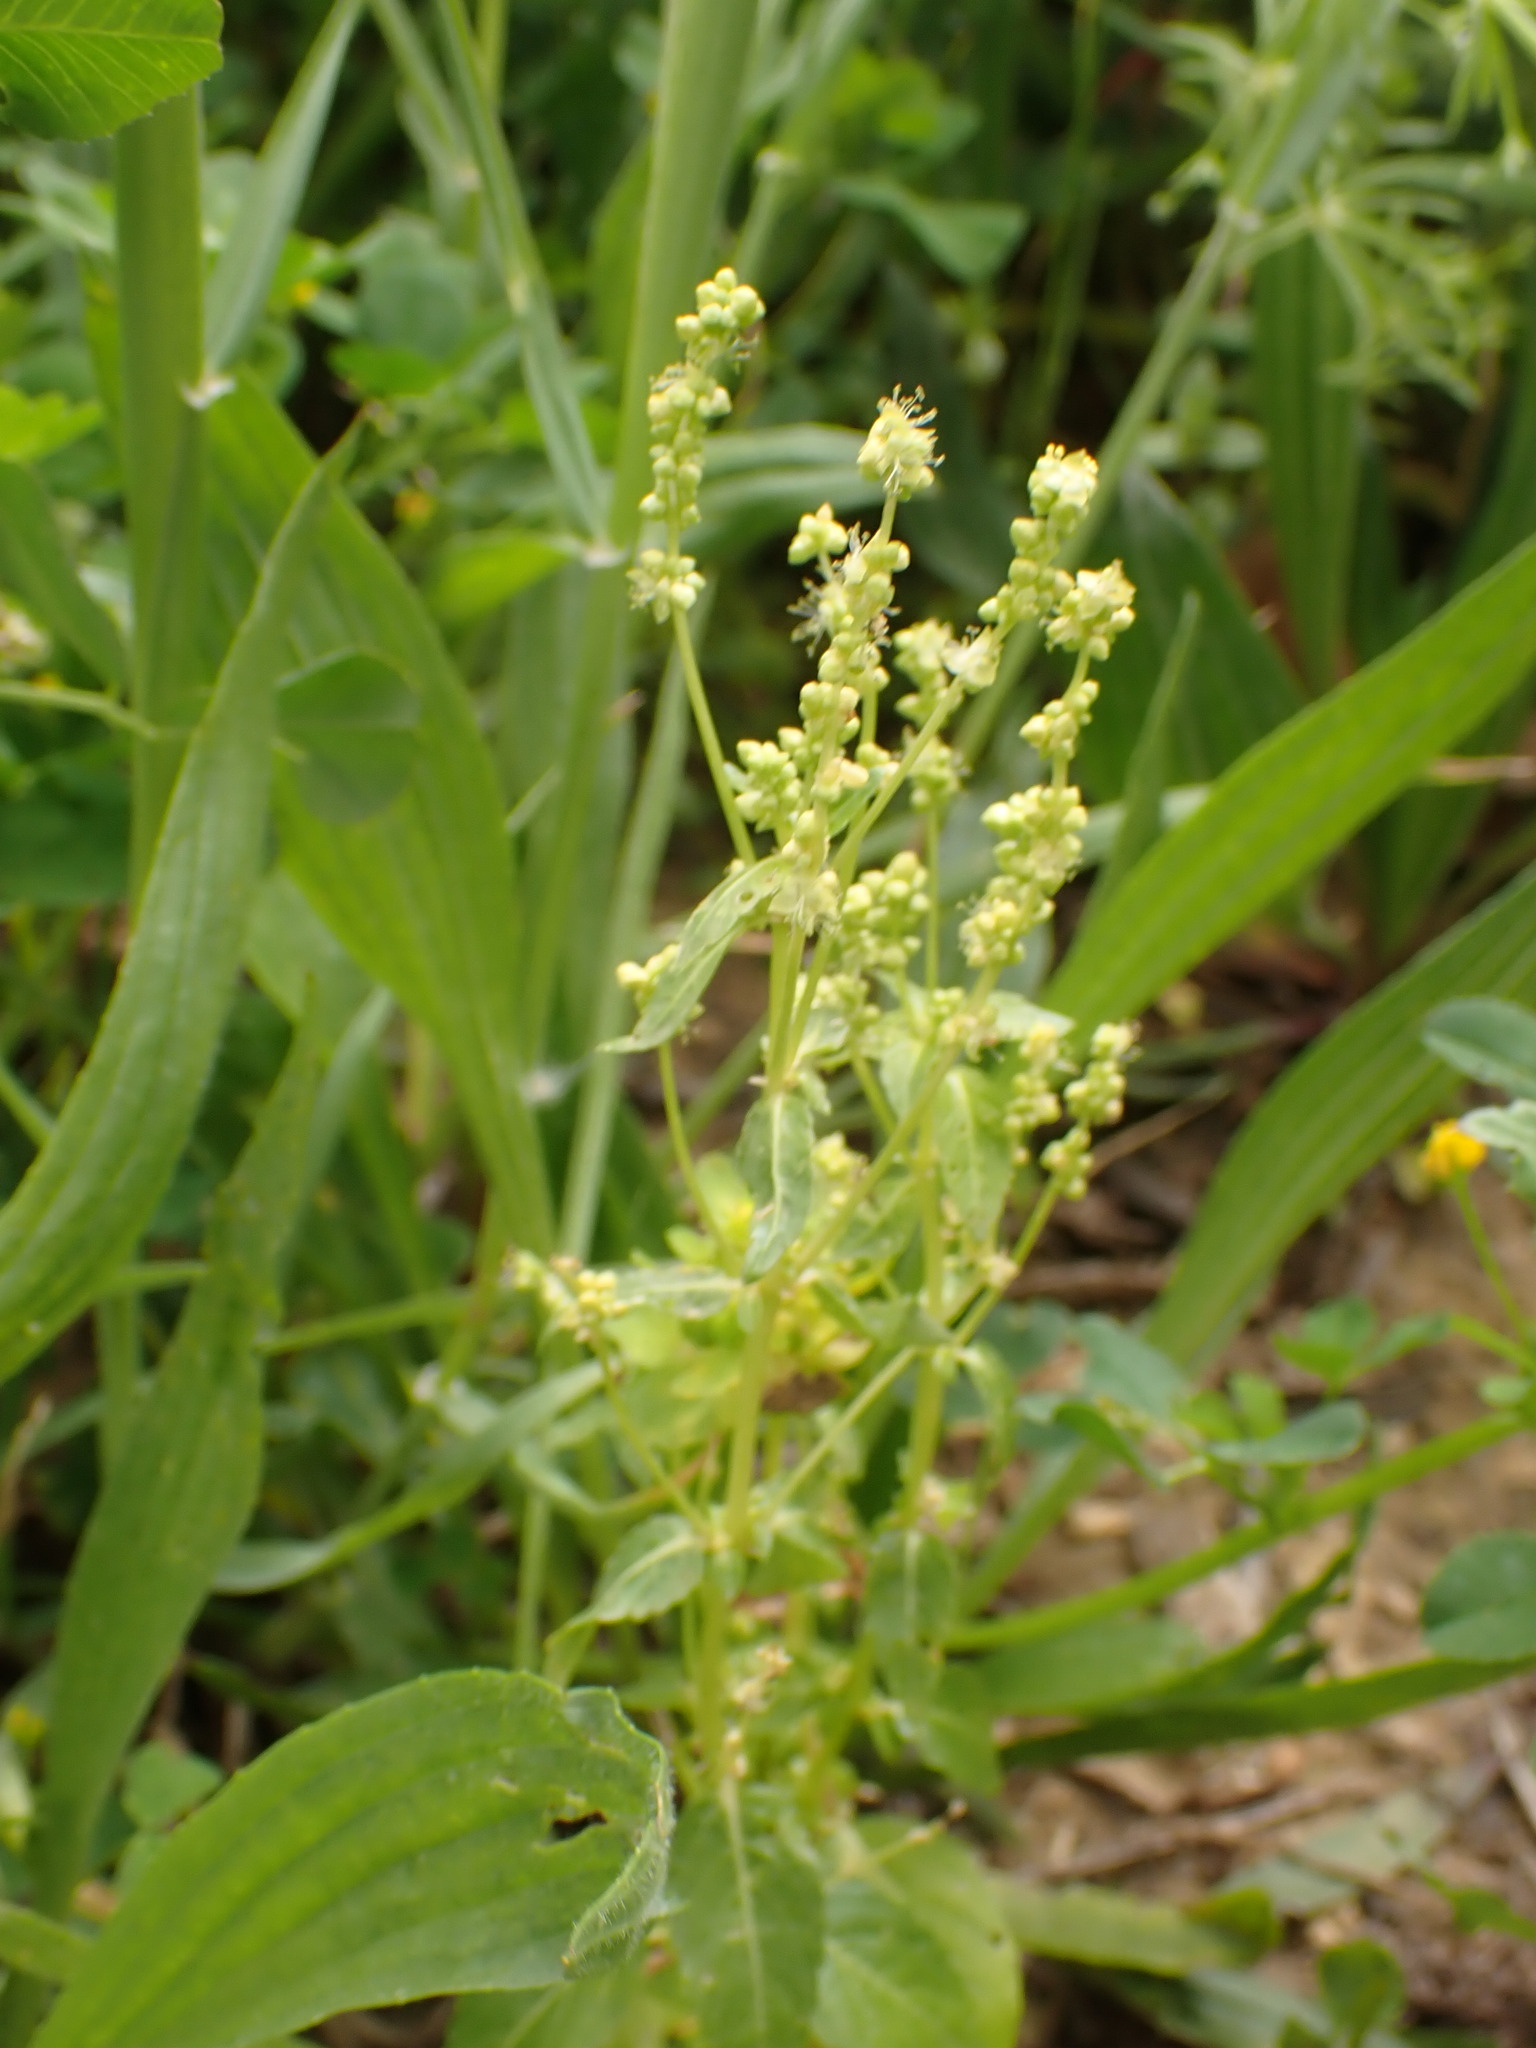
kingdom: Plantae
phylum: Tracheophyta
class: Magnoliopsida
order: Malpighiales
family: Euphorbiaceae
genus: Mercurialis
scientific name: Mercurialis annua
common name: Annual mercury
